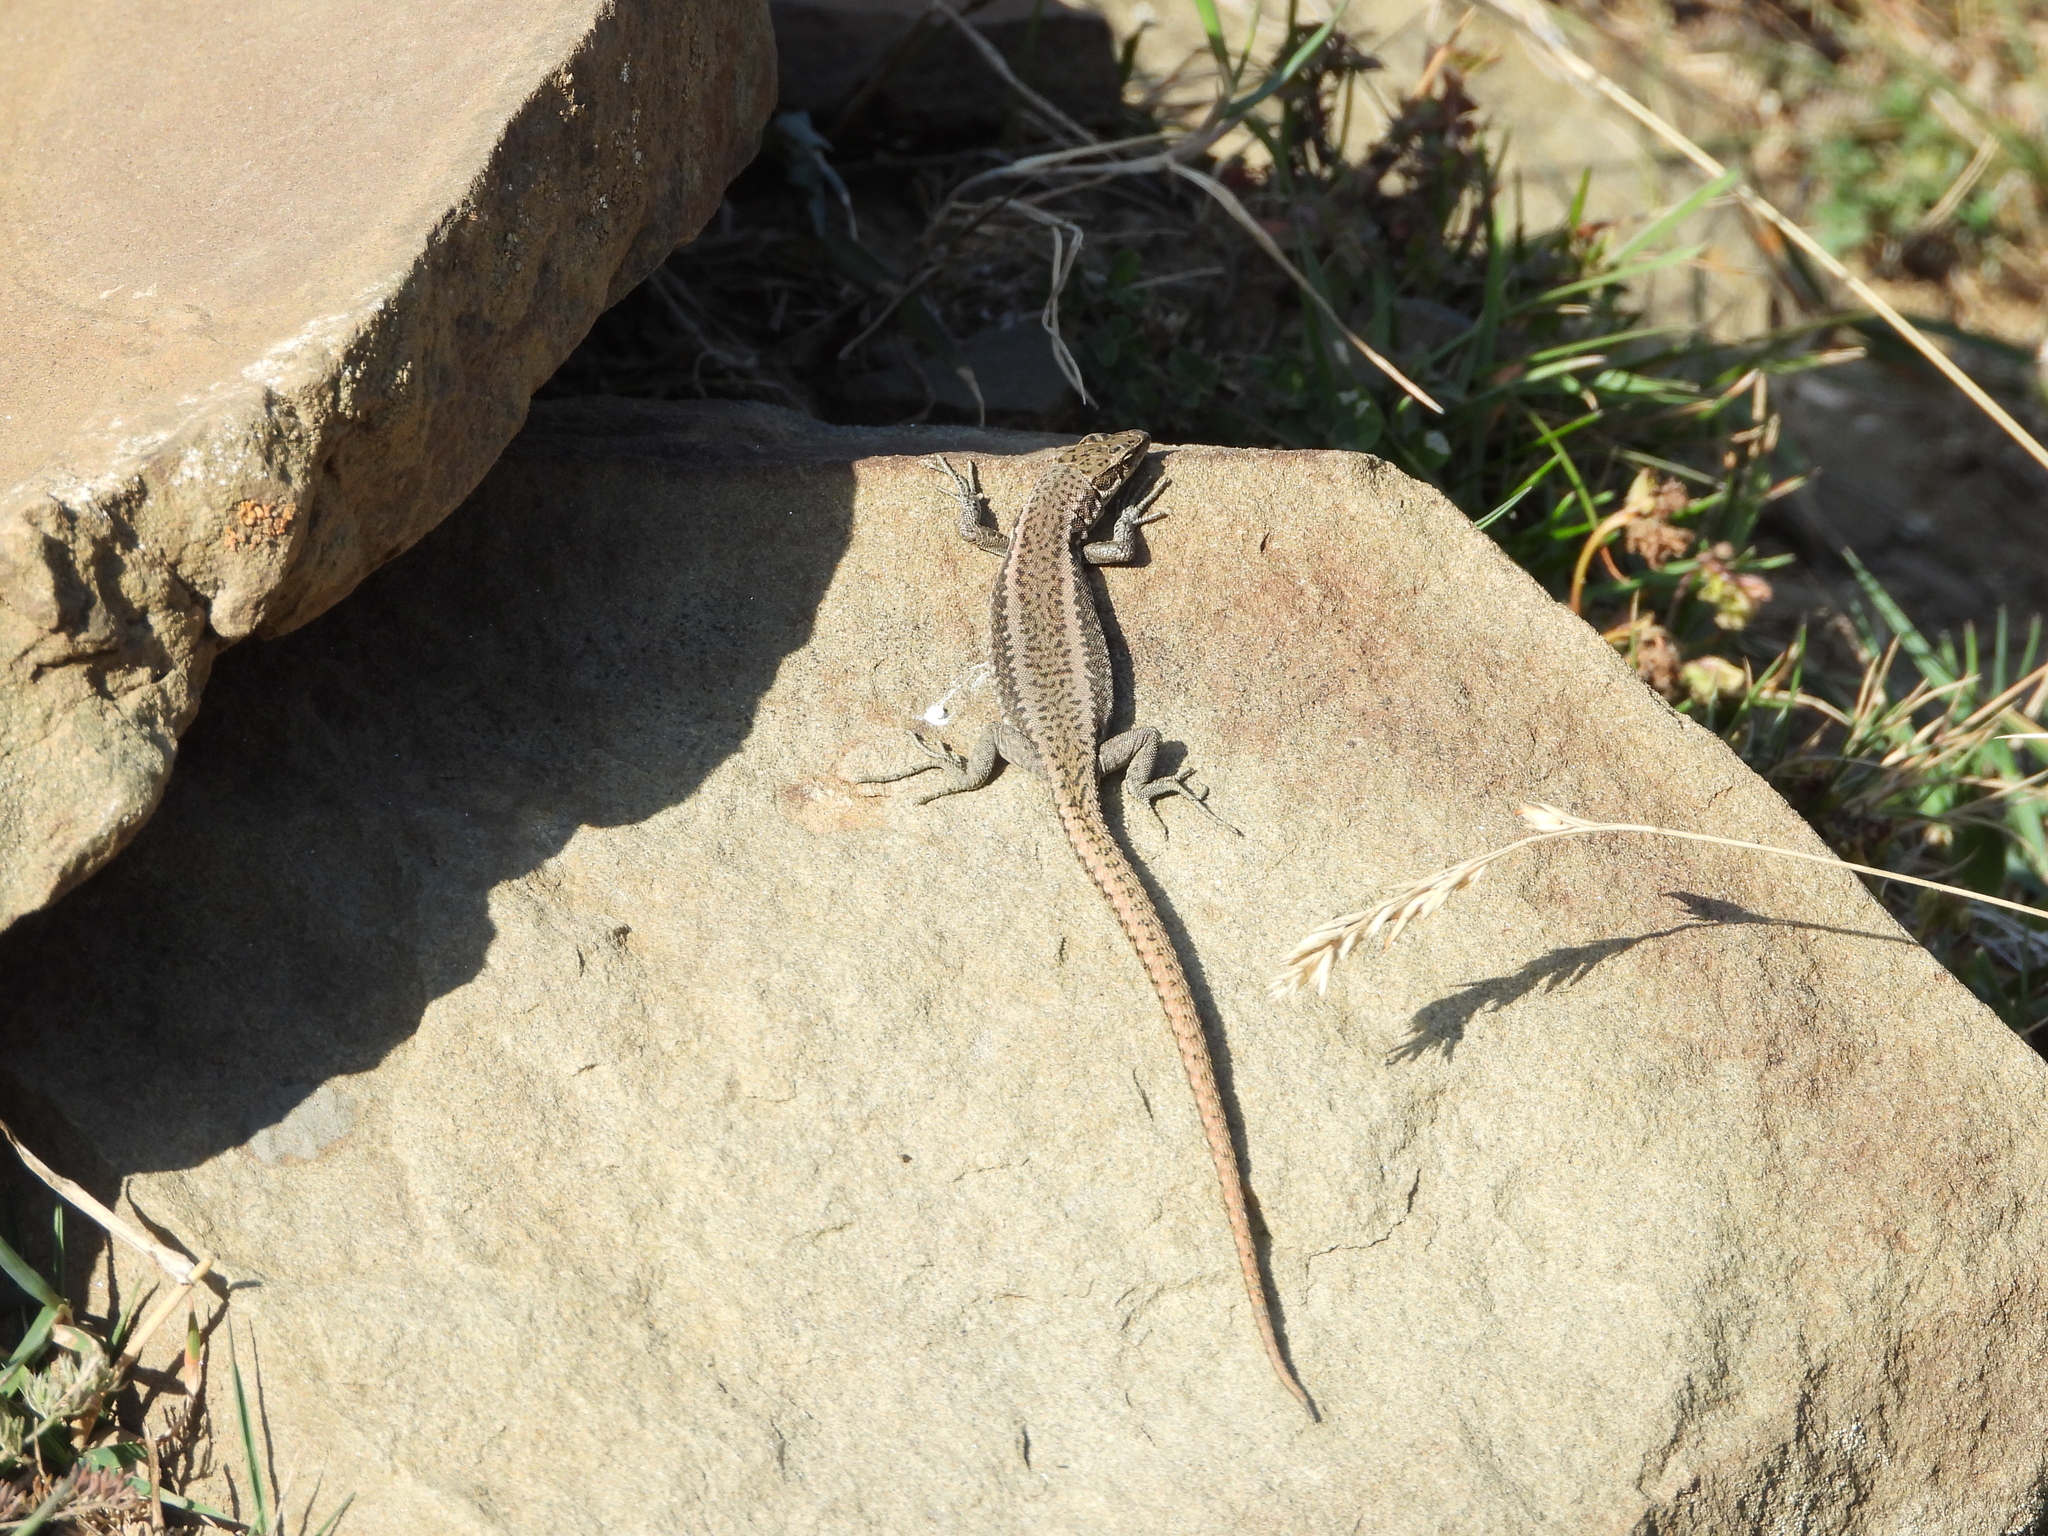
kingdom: Animalia
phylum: Chordata
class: Squamata
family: Lacertidae
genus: Darevskia
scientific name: Darevskia daghestanica
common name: Dagestan lizard
